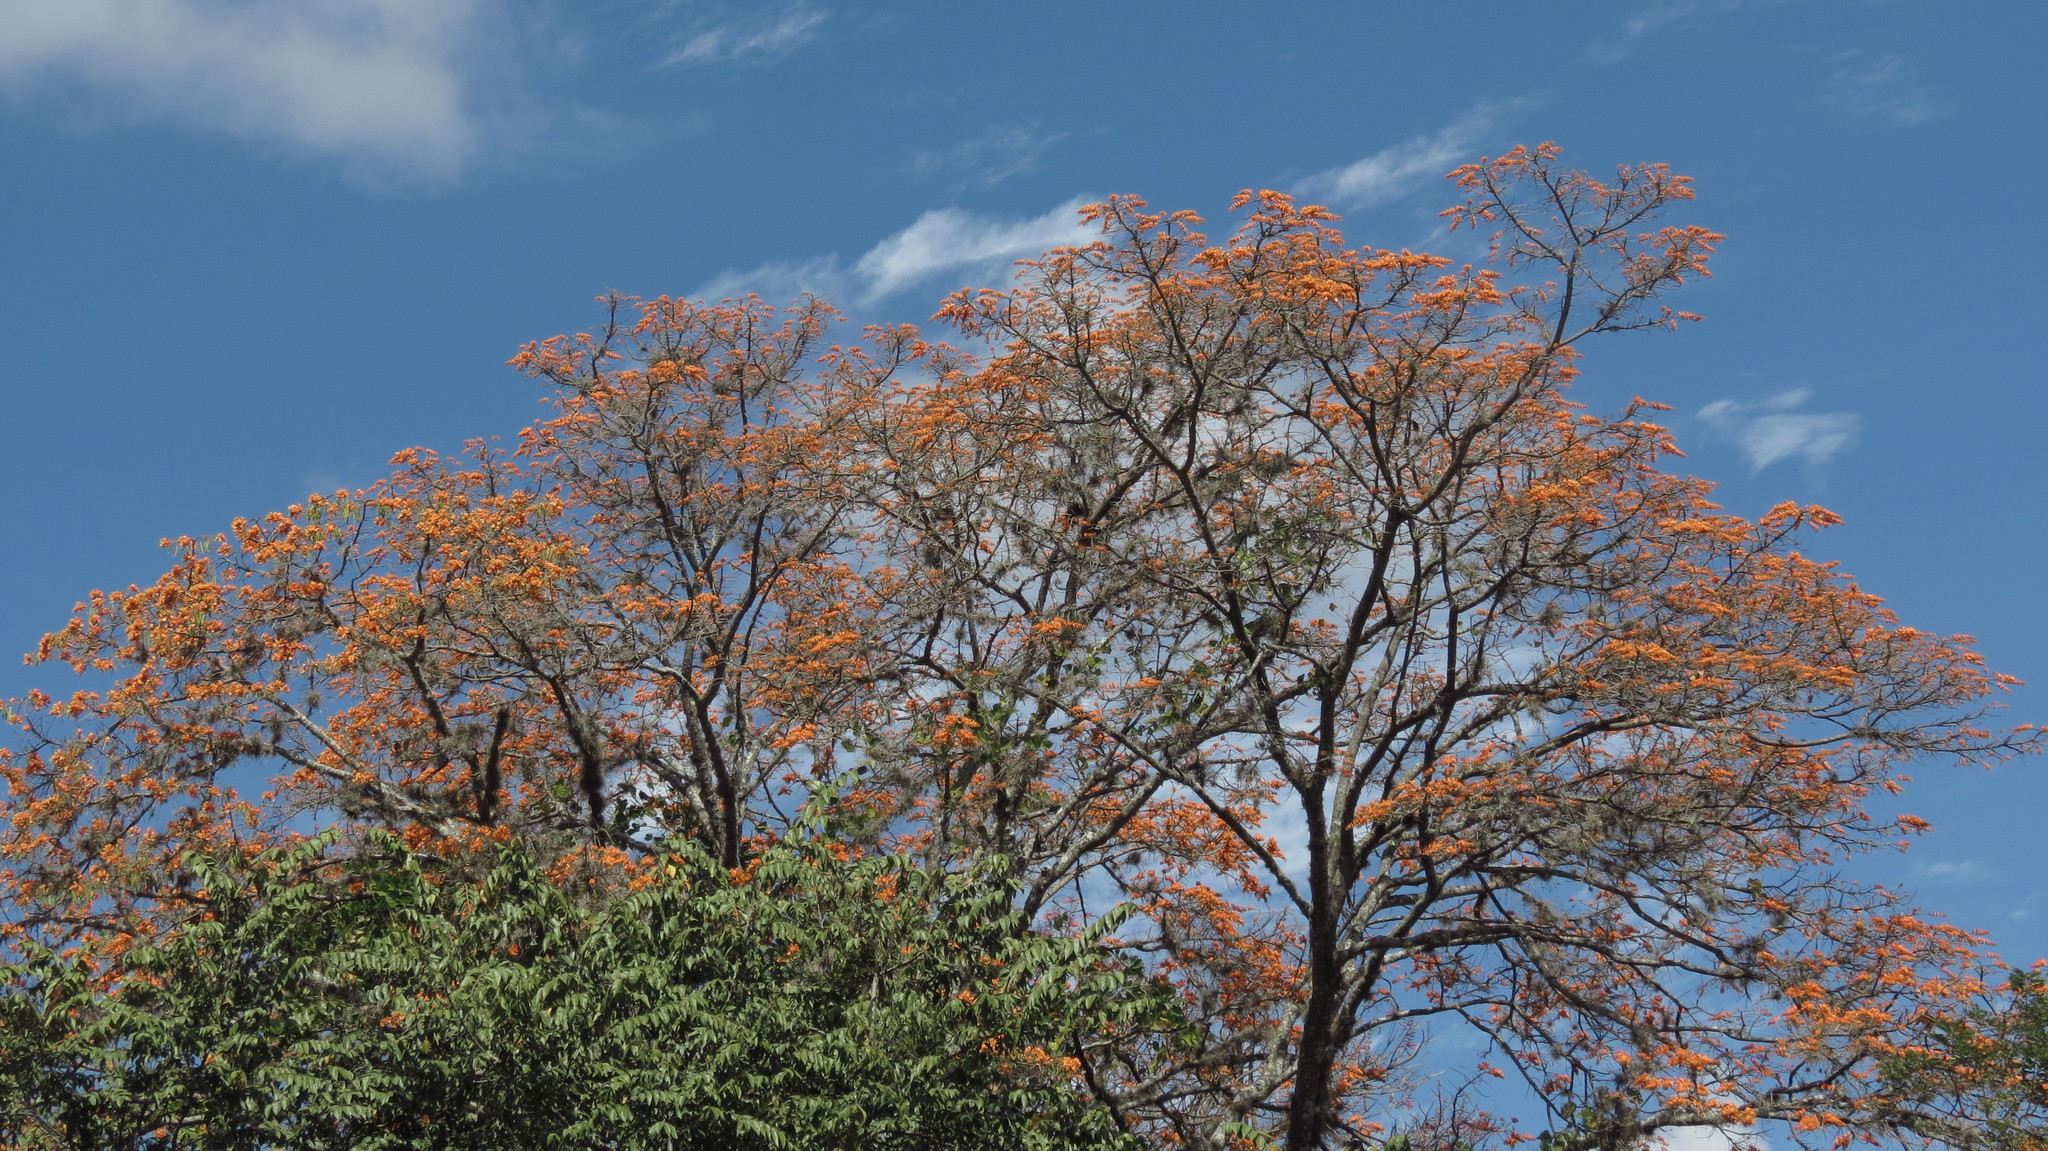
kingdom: Plantae
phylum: Tracheophyta
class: Magnoliopsida
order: Fabales
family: Fabaceae
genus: Erythrina
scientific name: Erythrina poeppigiana
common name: Coral tree
